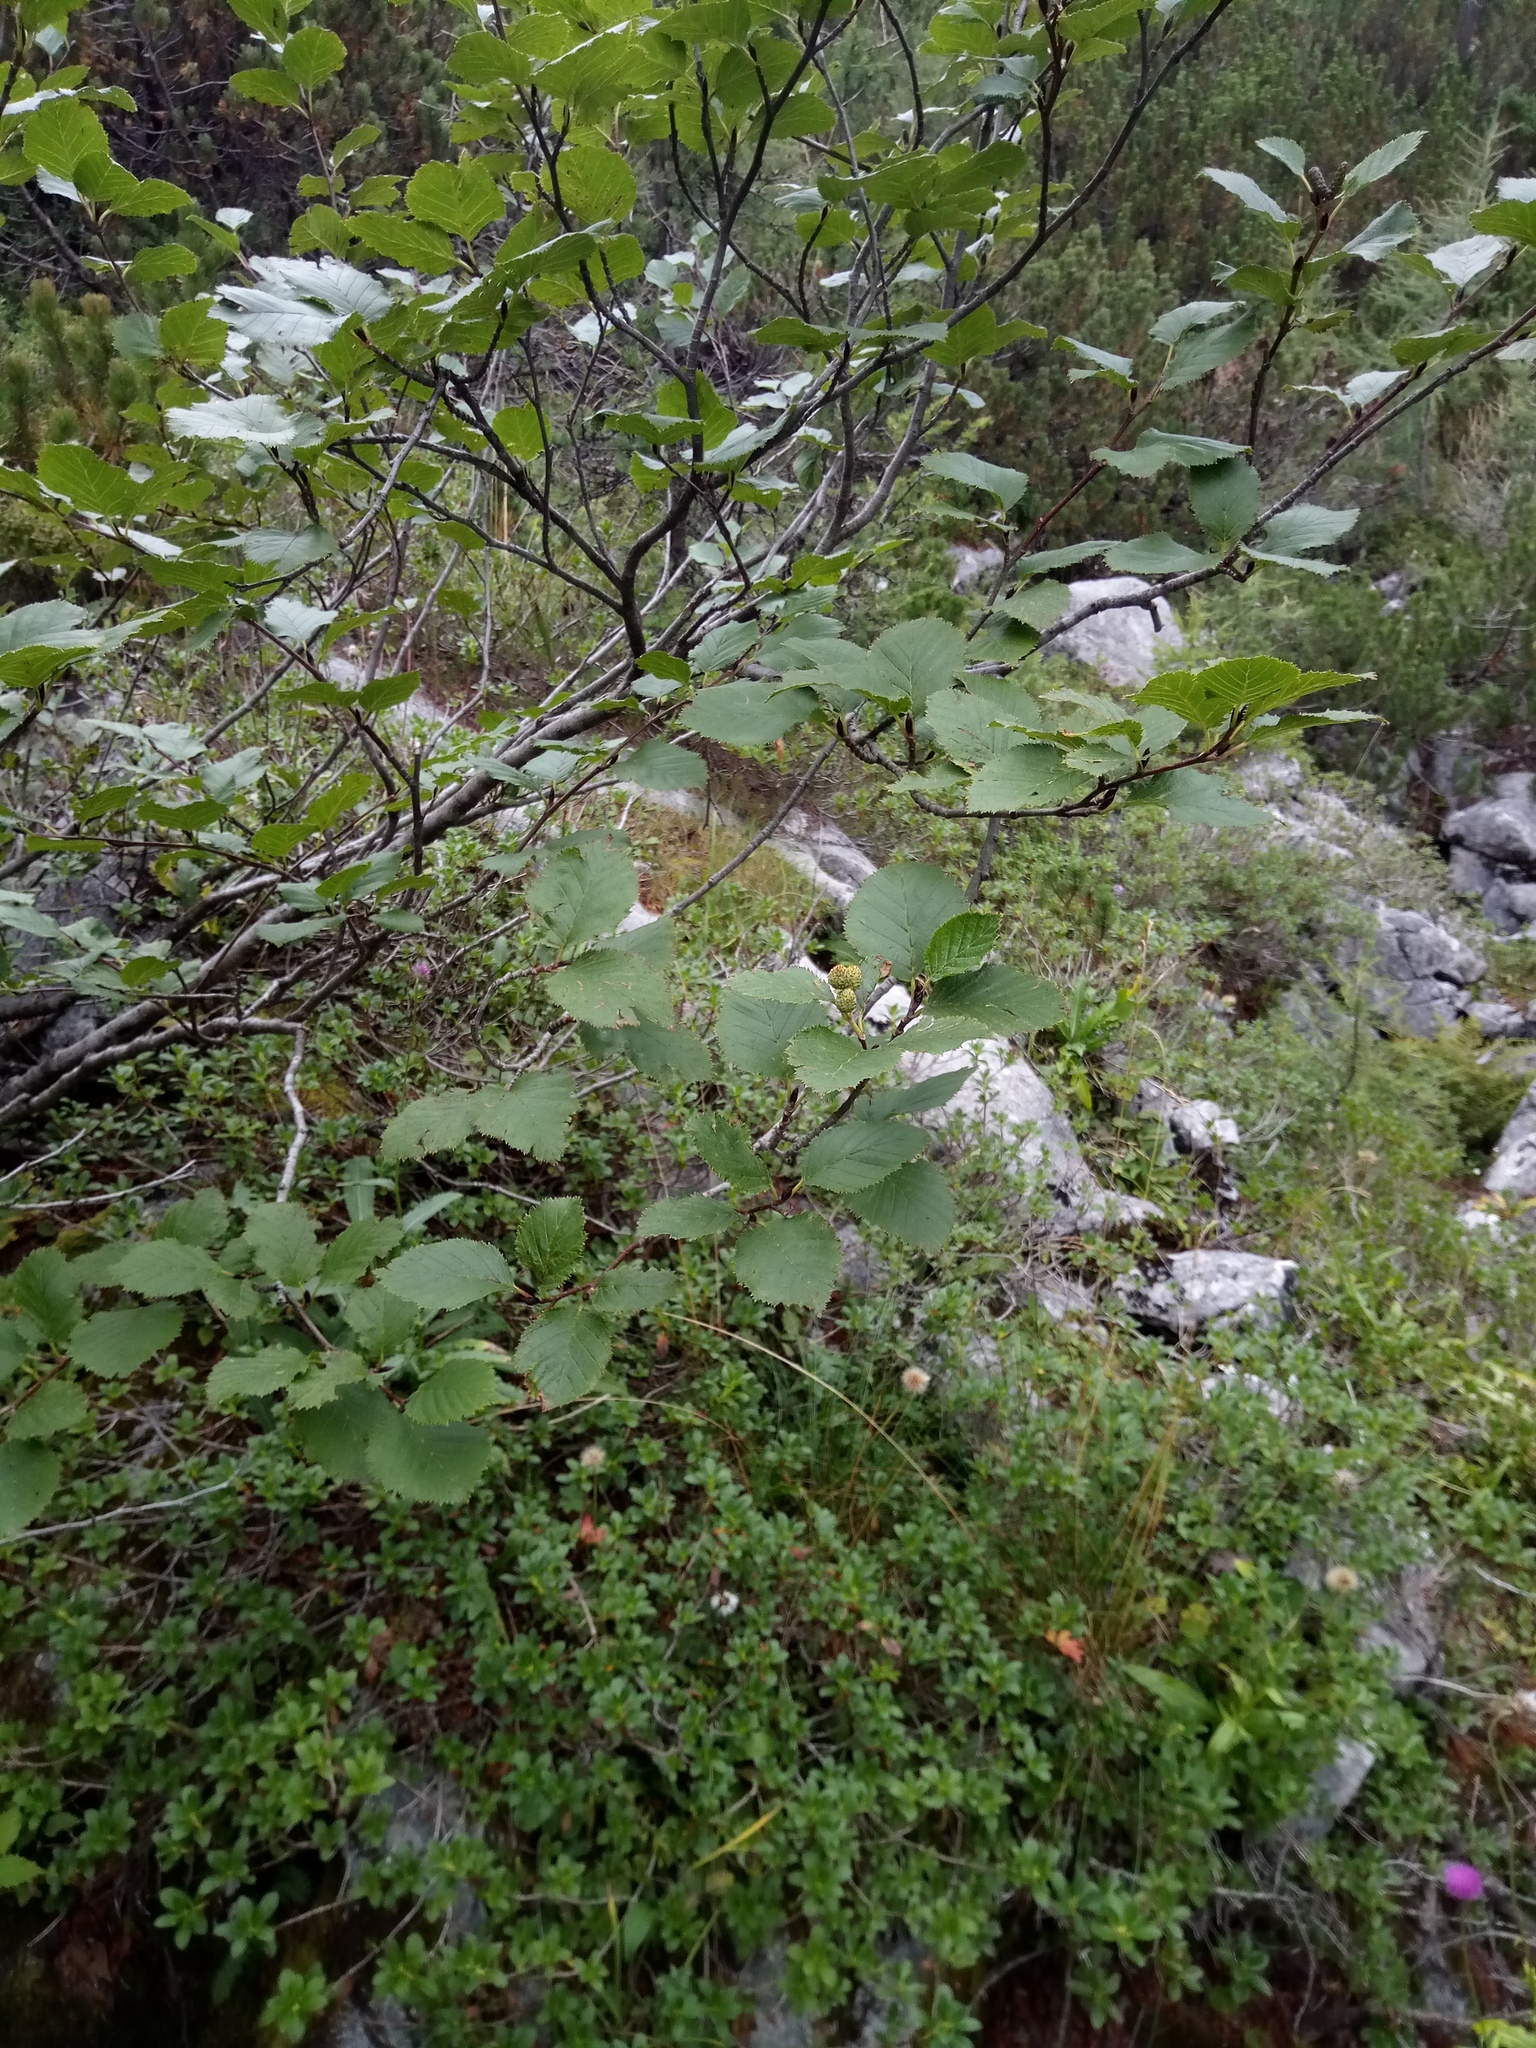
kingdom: Plantae
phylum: Tracheophyta
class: Magnoliopsida
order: Fagales
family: Betulaceae
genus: Alnus
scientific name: Alnus alnobetula
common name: Green alder
